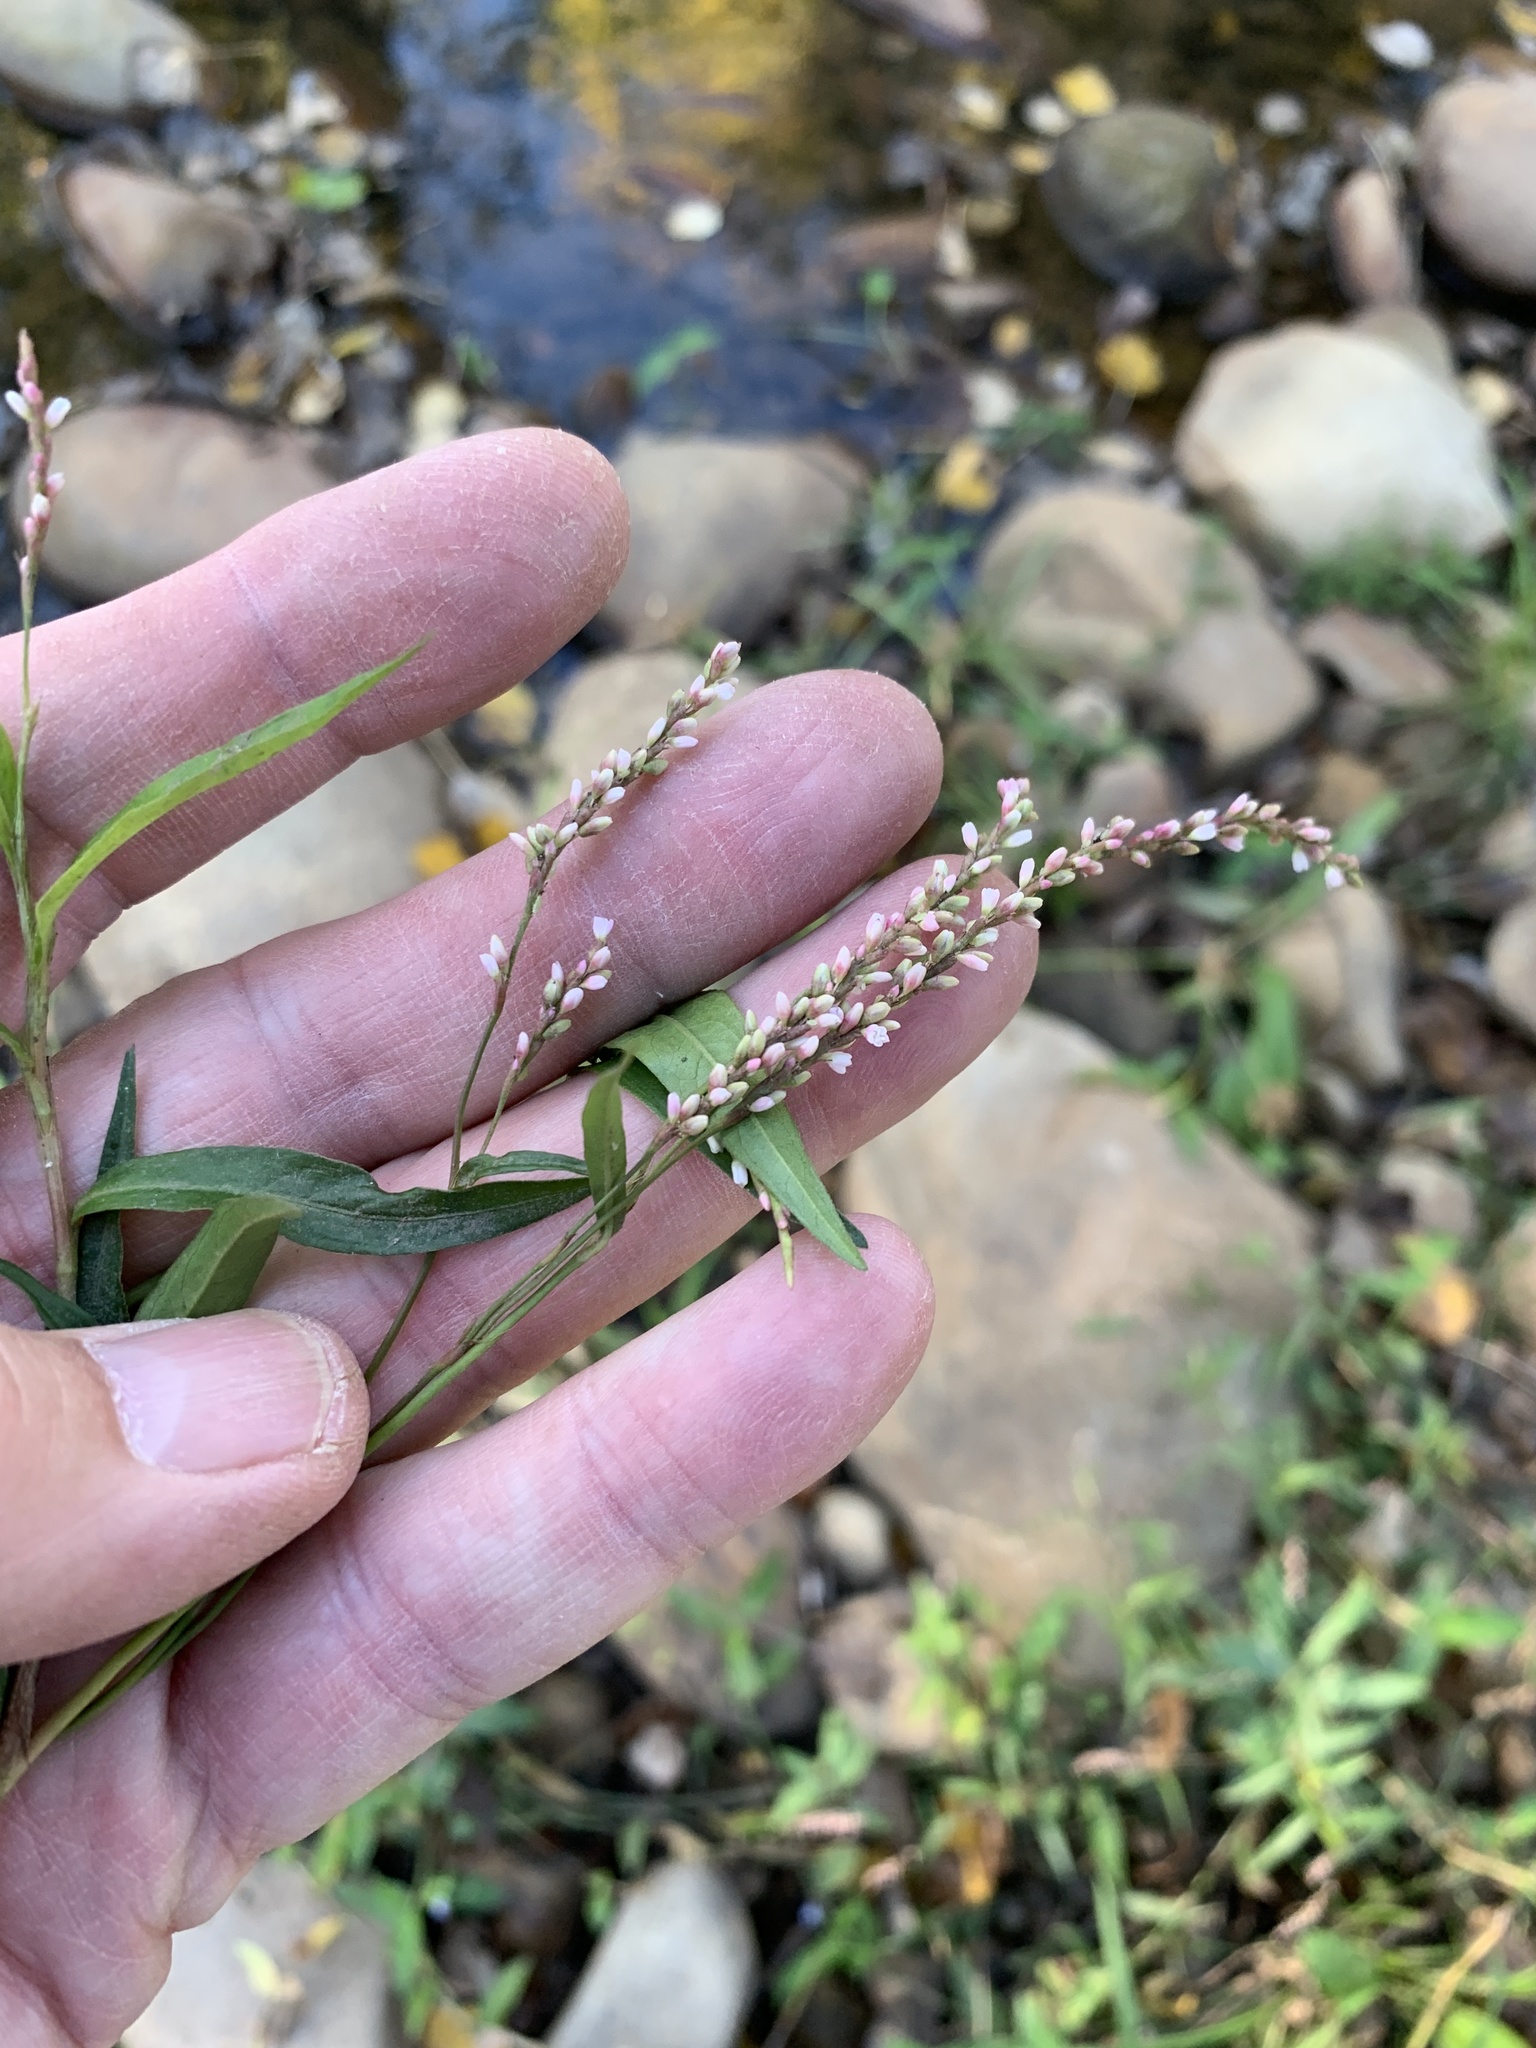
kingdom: Plantae
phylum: Tracheophyta
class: Magnoliopsida
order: Caryophyllales
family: Polygonaceae
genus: Persicaria
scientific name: Persicaria decipiens
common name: Willow-weed
